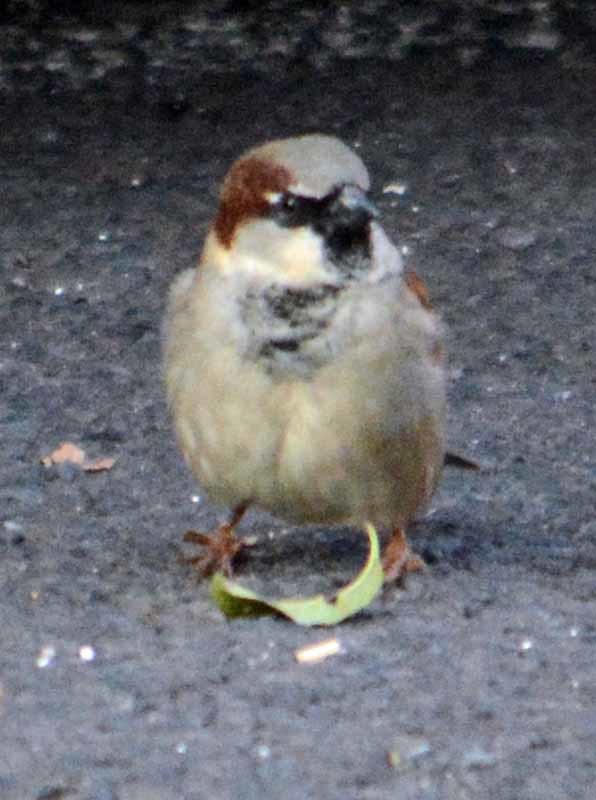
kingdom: Animalia
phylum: Chordata
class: Aves
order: Passeriformes
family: Passeridae
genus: Passer
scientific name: Passer domesticus
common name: House sparrow
